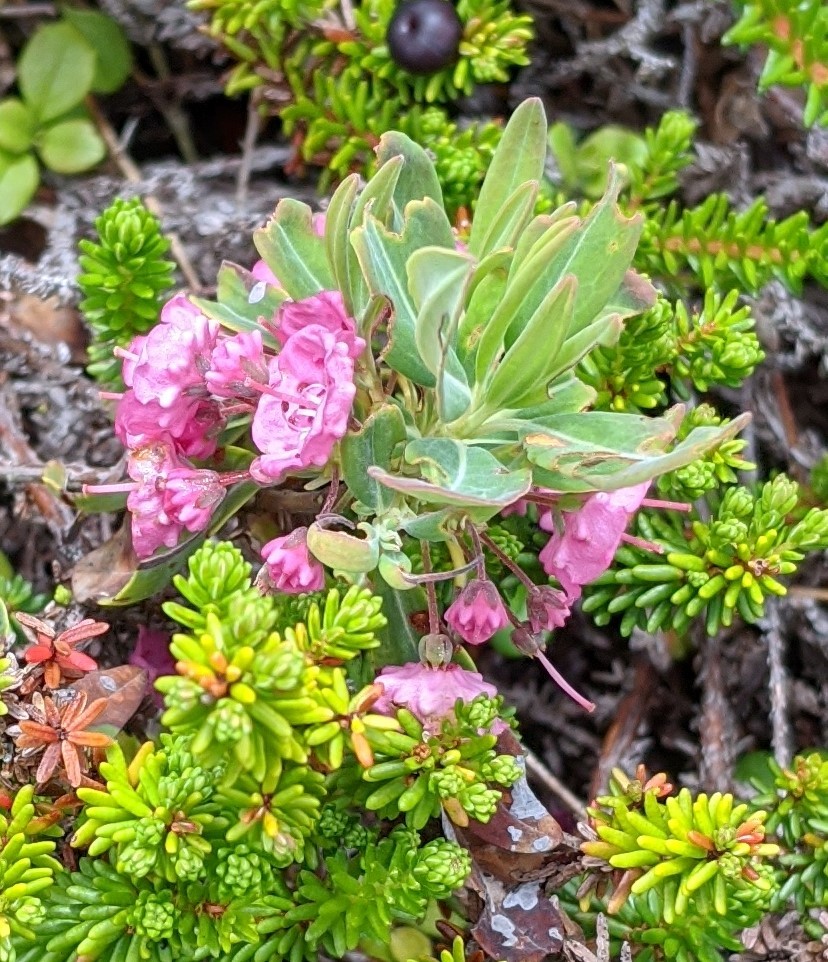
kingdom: Plantae
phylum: Tracheophyta
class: Magnoliopsida
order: Ericales
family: Ericaceae
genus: Kalmia
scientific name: Kalmia angustifolia
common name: Sheep-laurel
